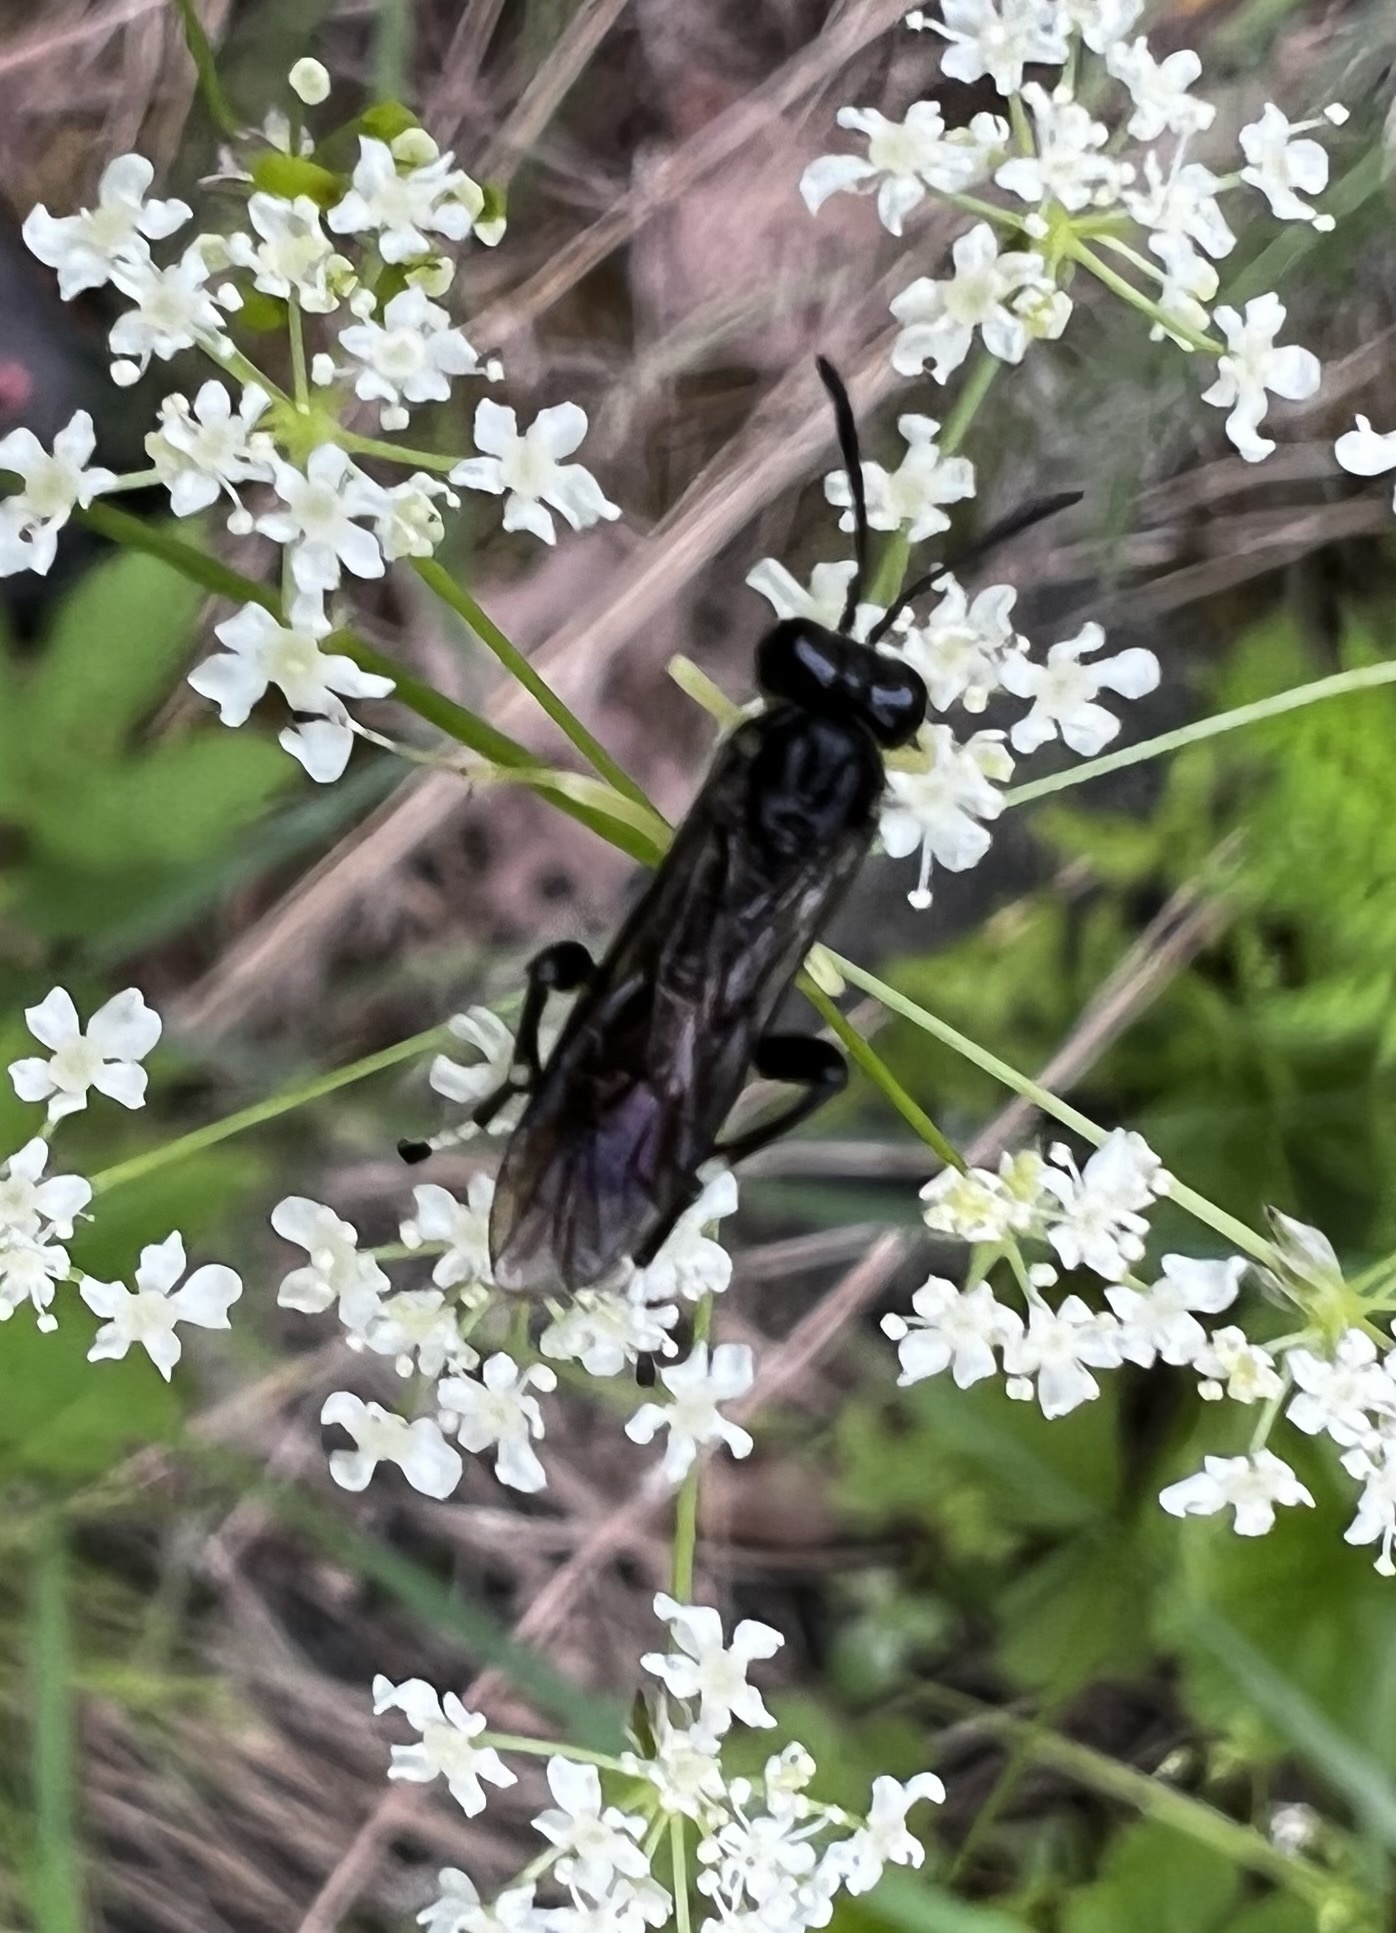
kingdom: Animalia
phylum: Arthropoda
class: Insecta
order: Hymenoptera
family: Tenthredinidae
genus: Macrophya
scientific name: Macrophya montana
